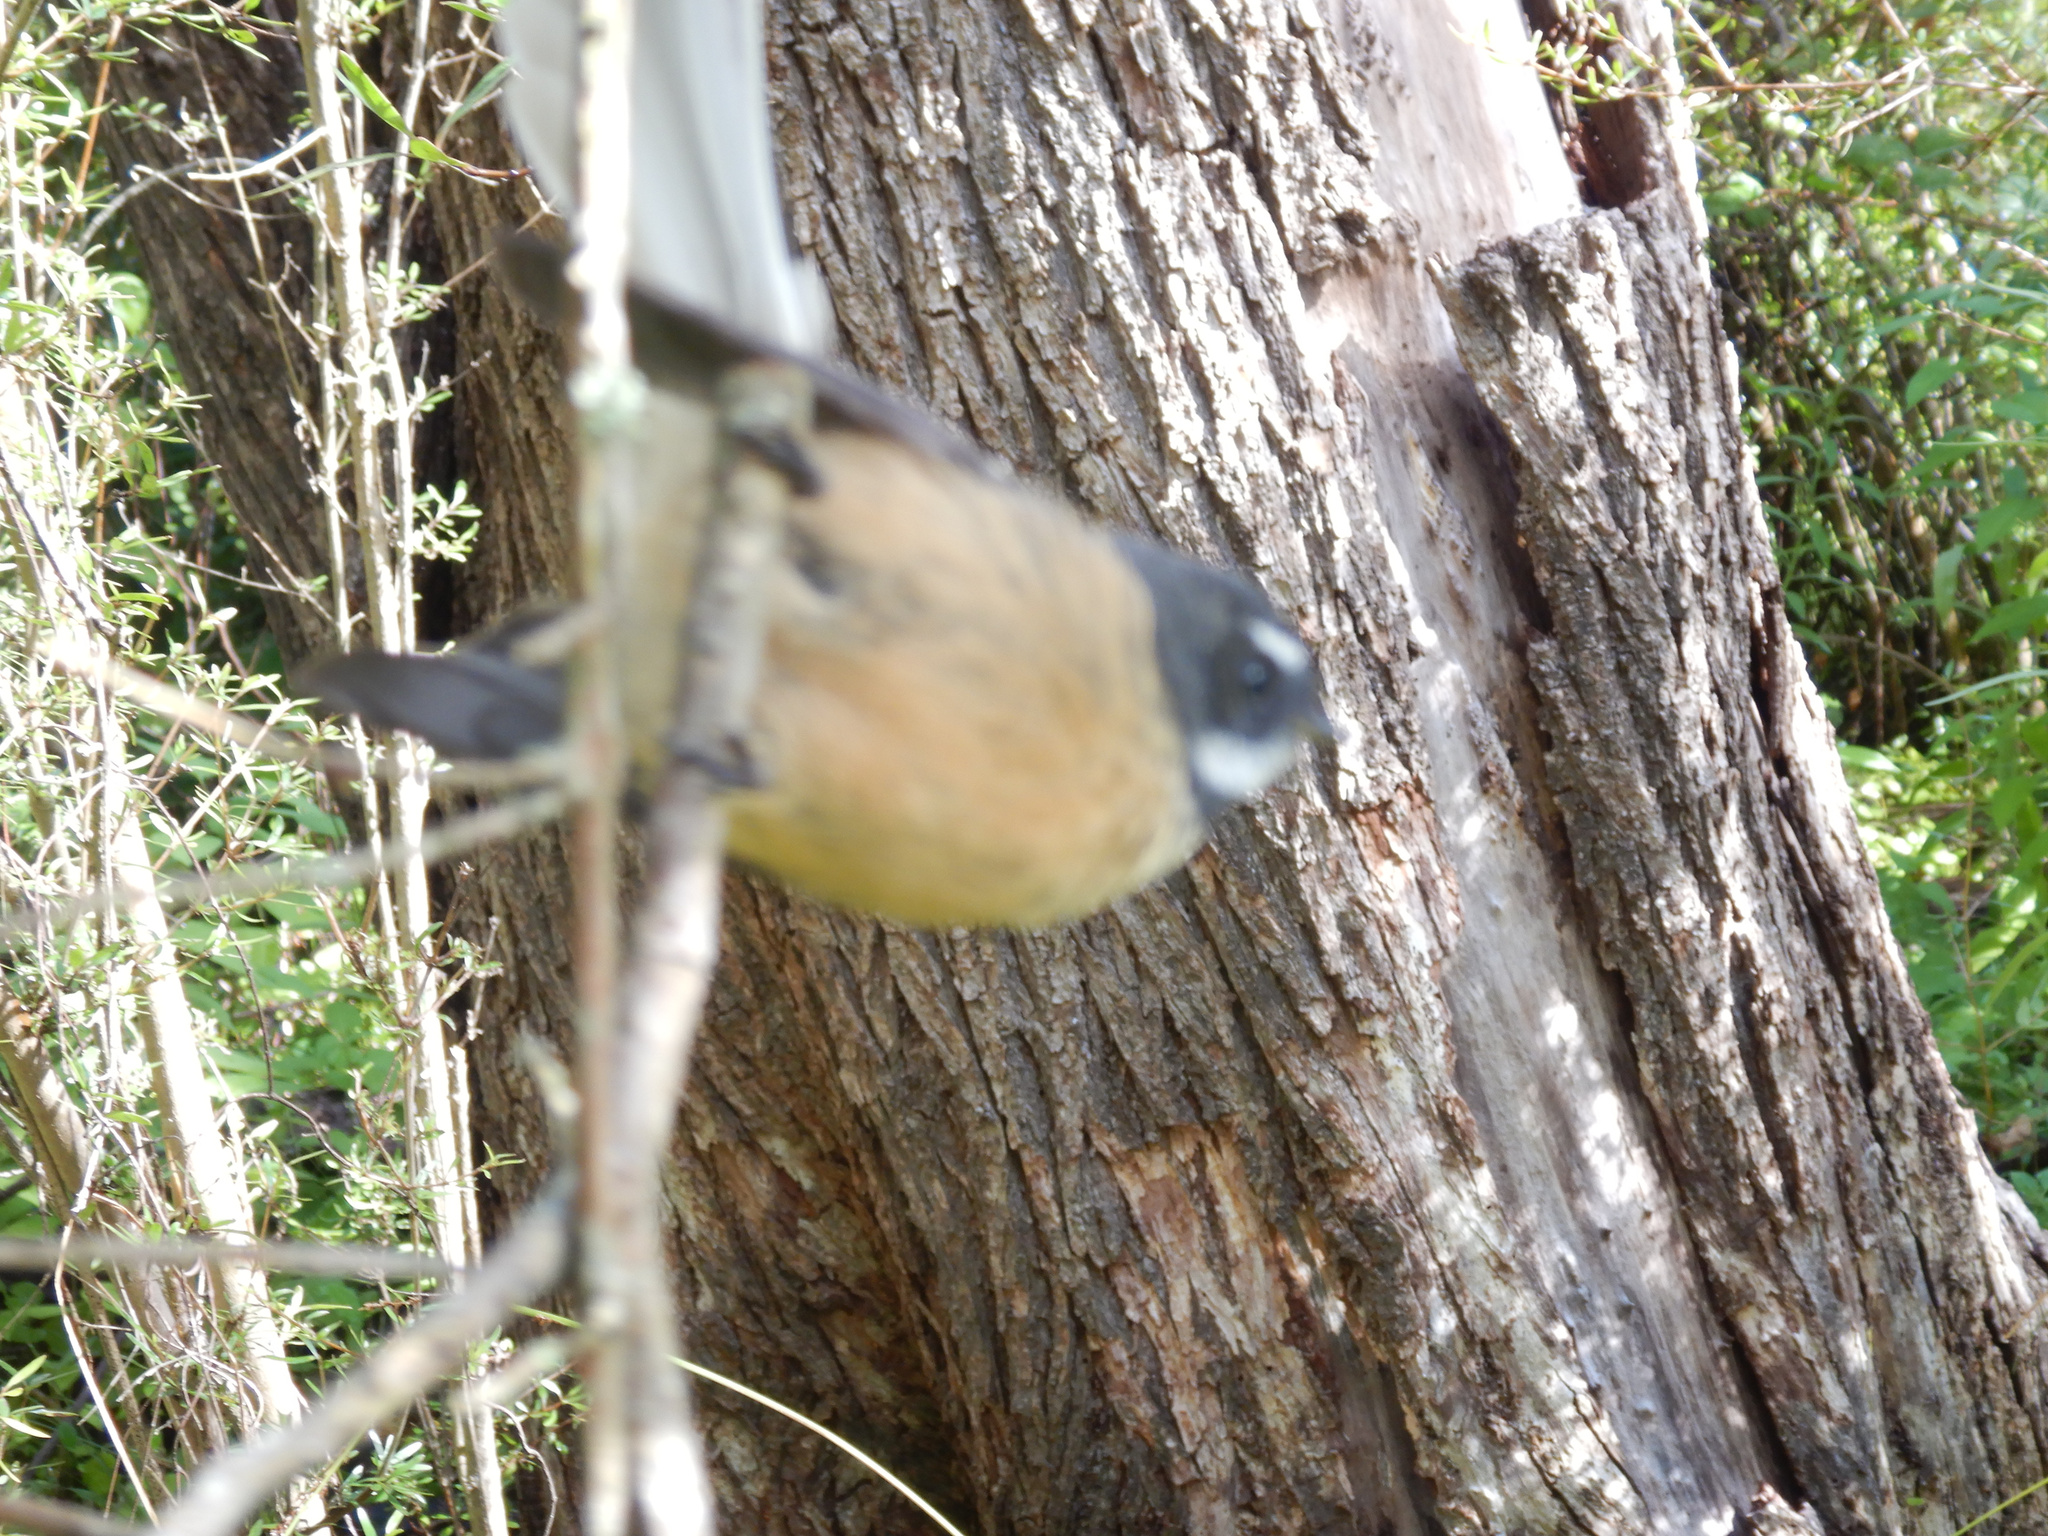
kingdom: Animalia
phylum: Chordata
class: Aves
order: Passeriformes
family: Rhipiduridae
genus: Rhipidura
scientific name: Rhipidura fuliginosa
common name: New zealand fantail
